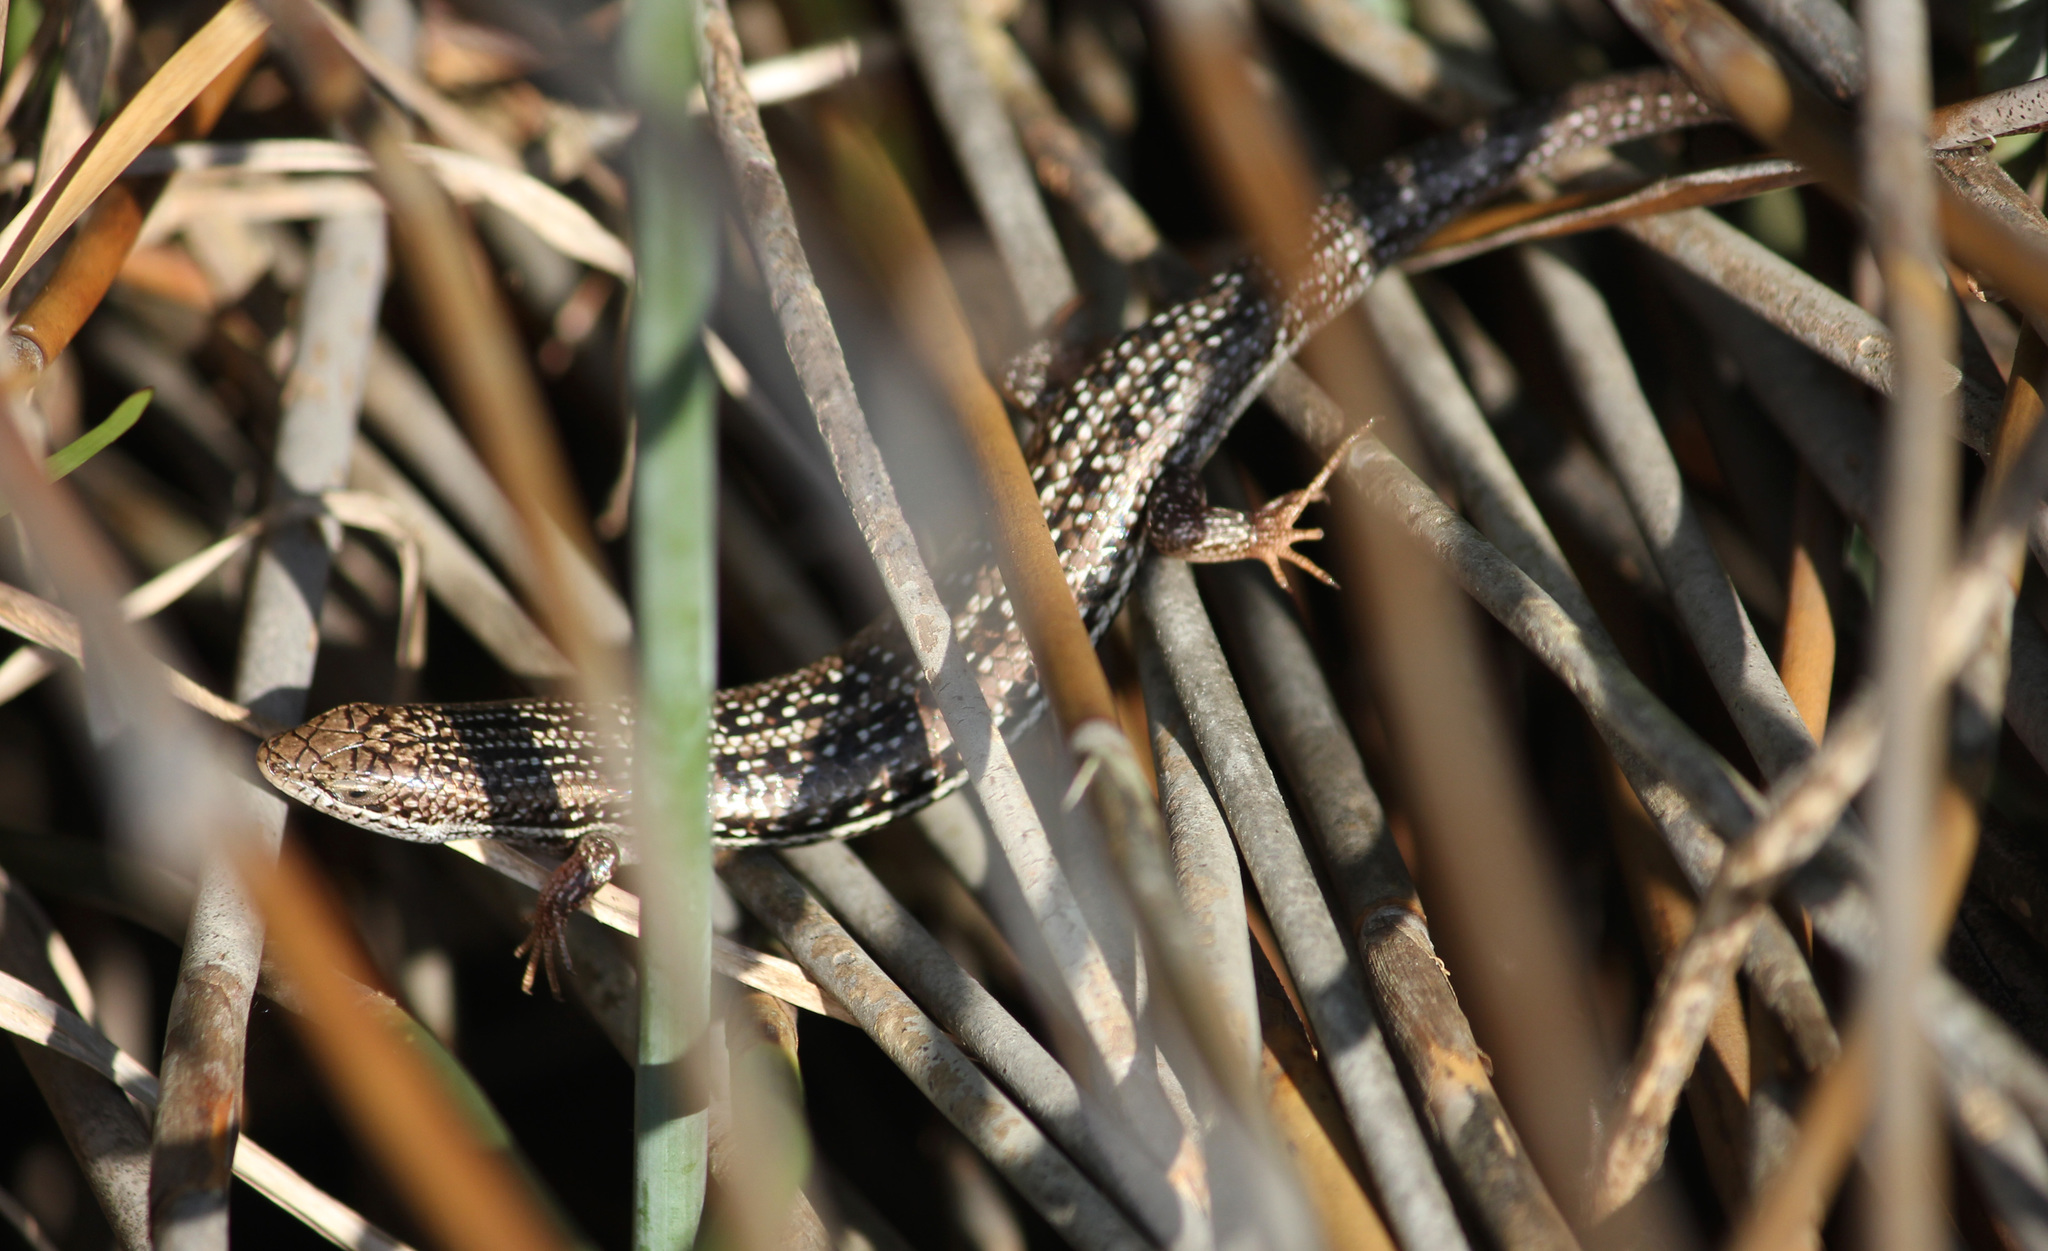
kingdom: Animalia
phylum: Chordata
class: Squamata
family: Scincidae
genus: Trachylepis
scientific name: Trachylepis homalocephala
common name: Red-sided skink
